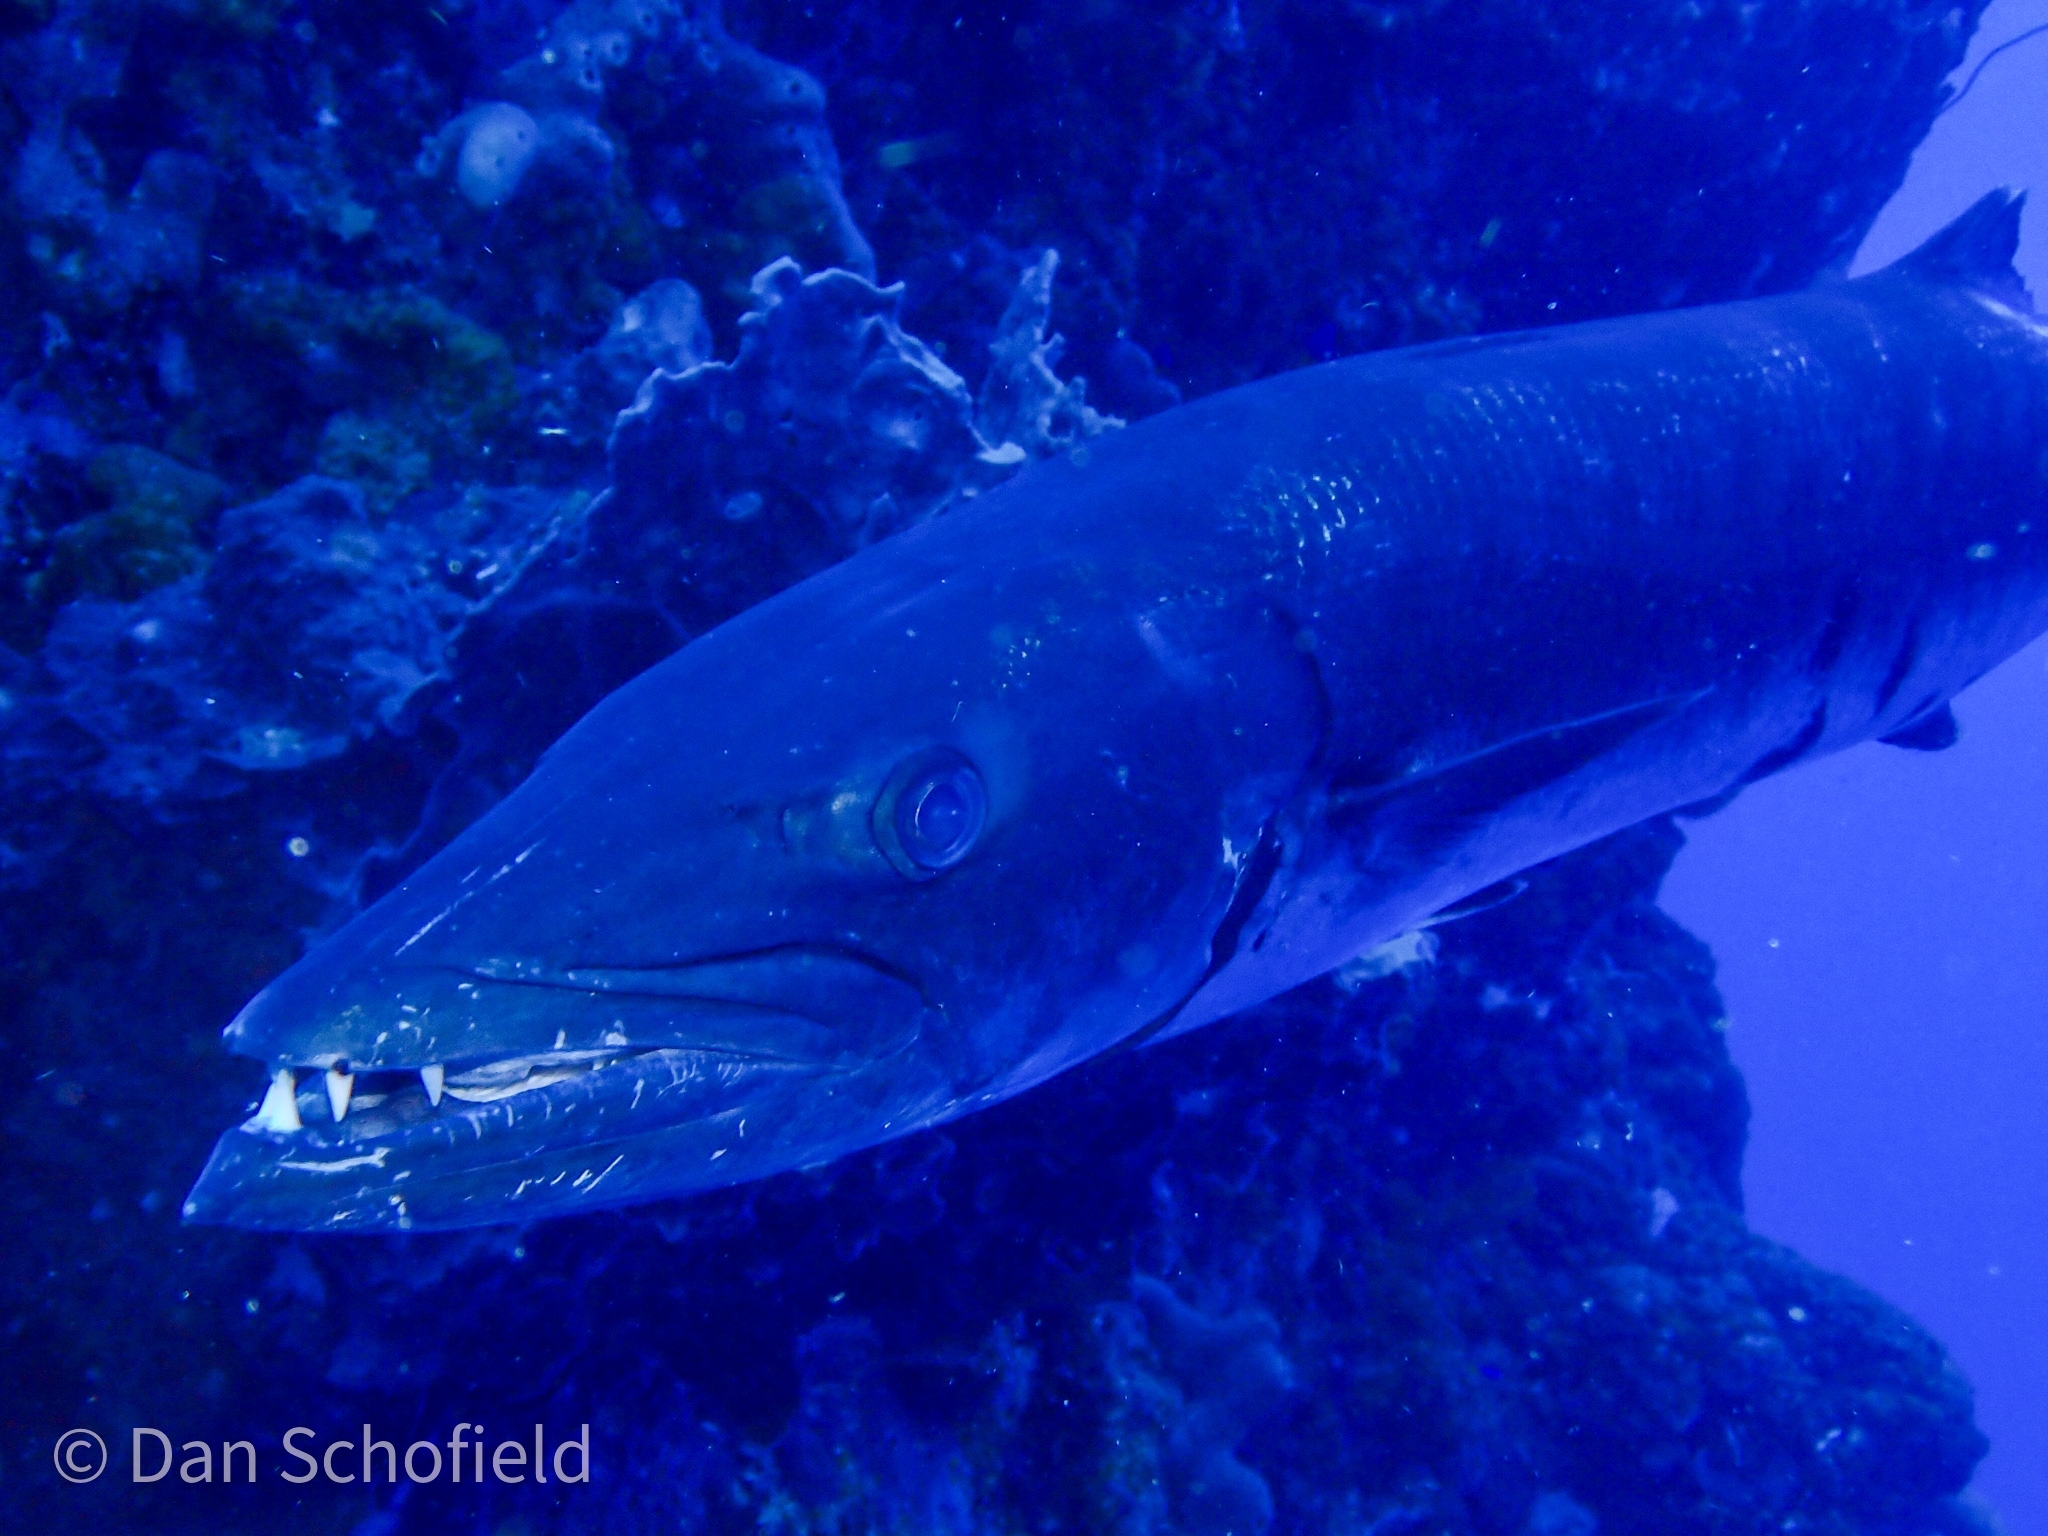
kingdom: Animalia
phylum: Chordata
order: Perciformes
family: Sphyraenidae
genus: Sphyraena
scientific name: Sphyraena barracuda
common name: Great barracuda
